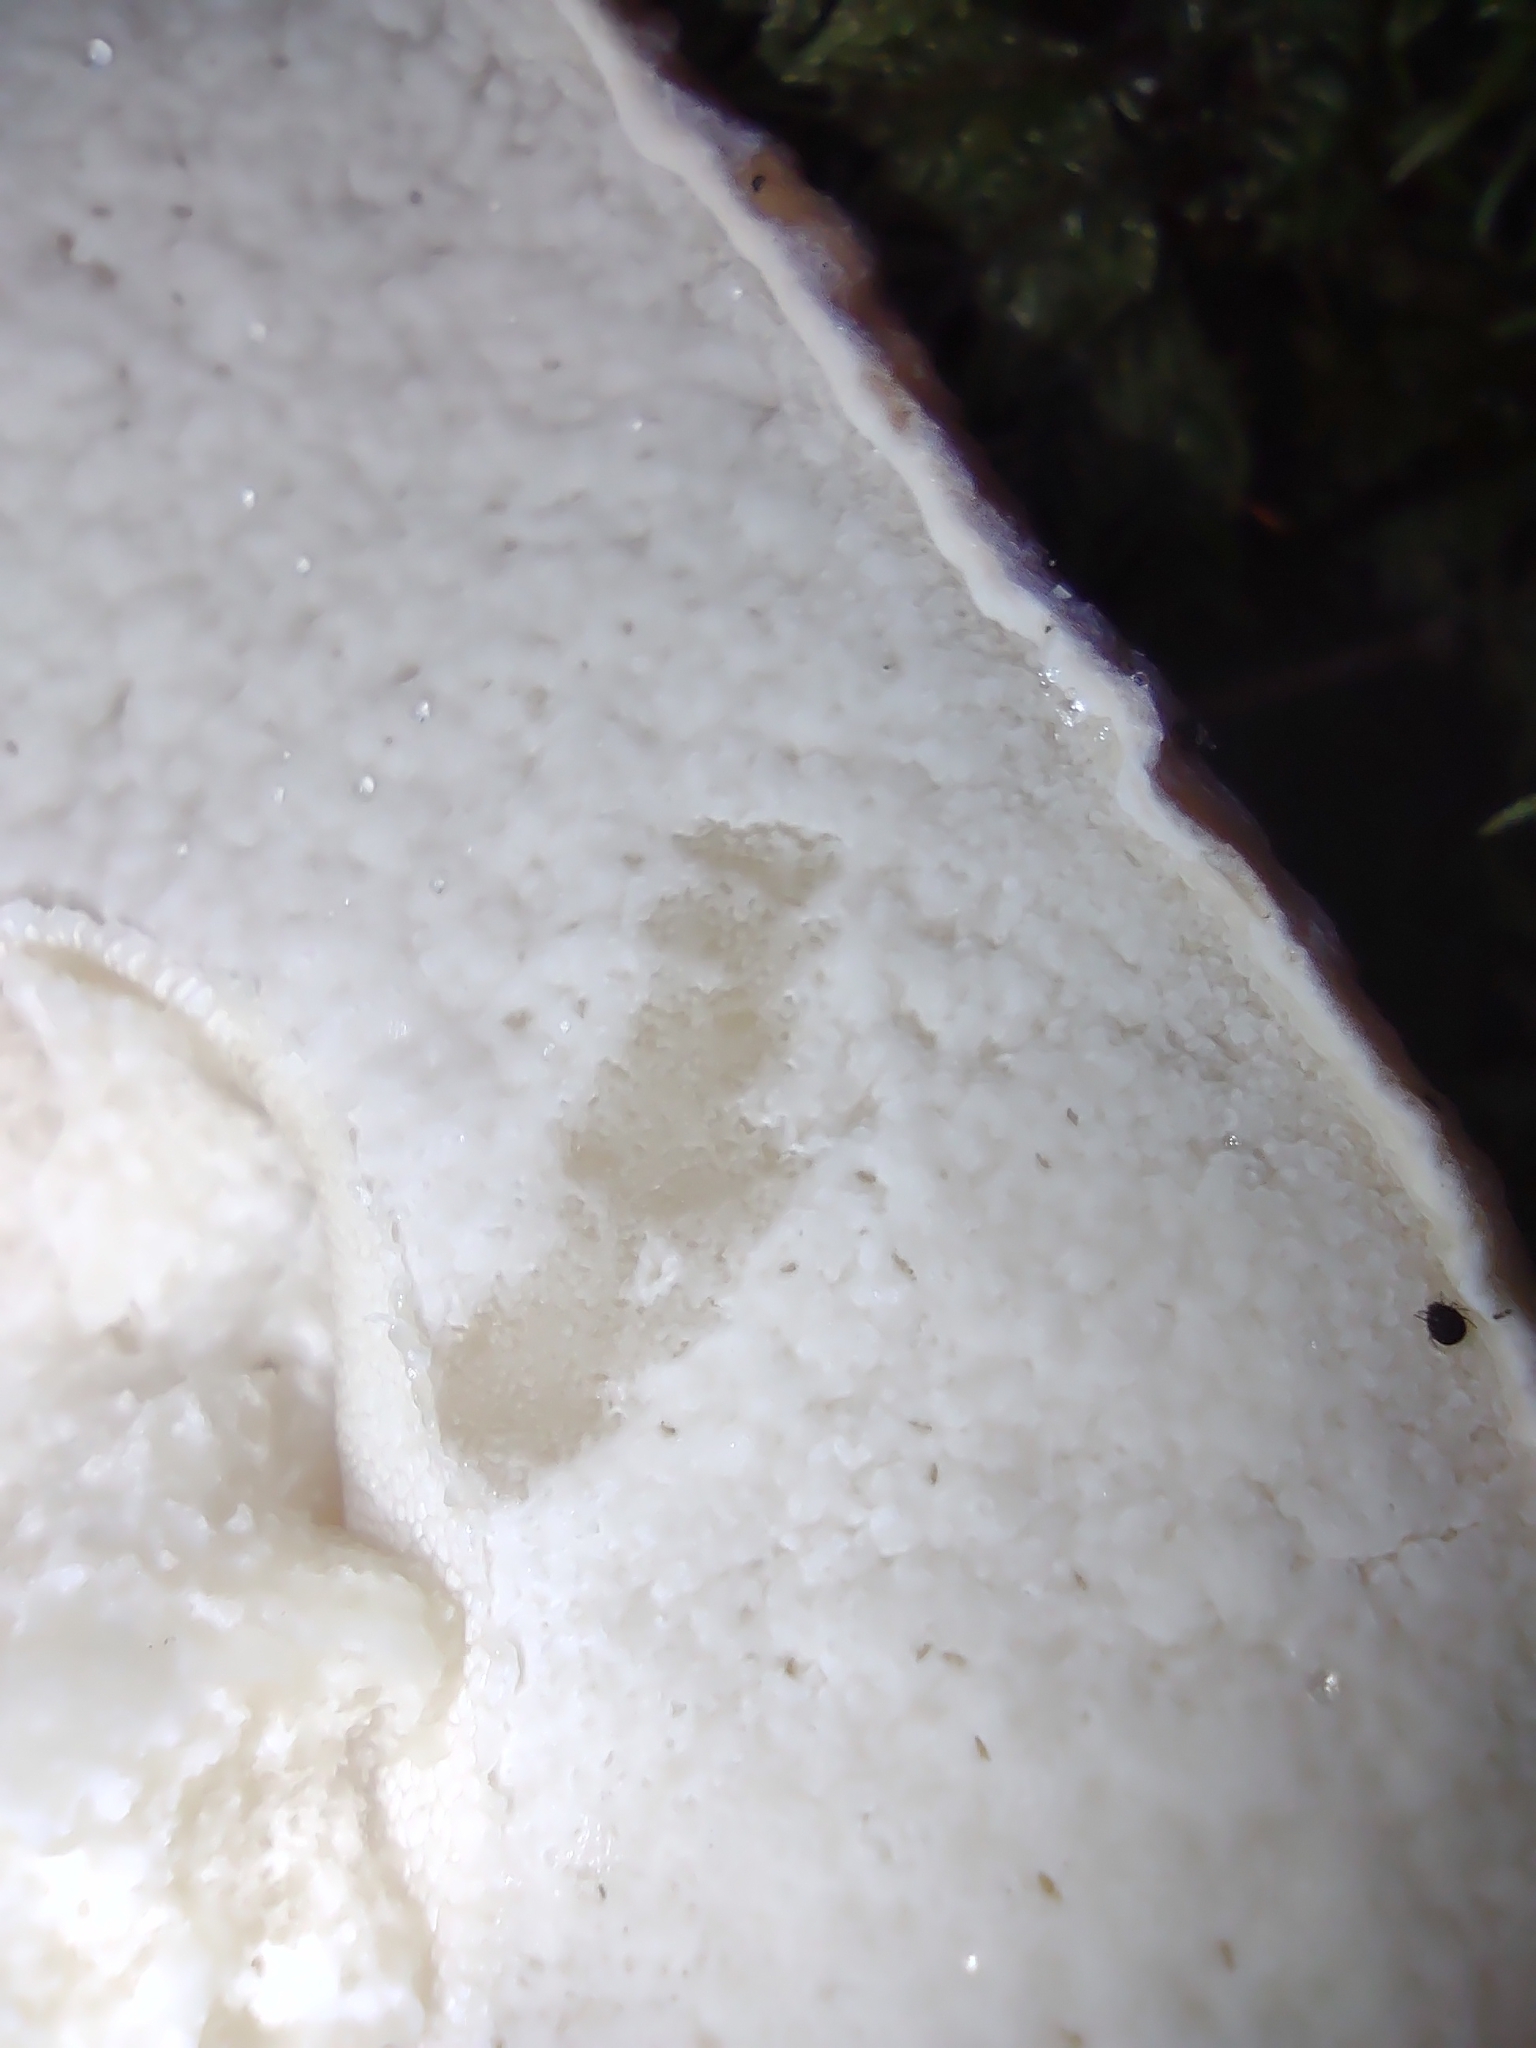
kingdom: Fungi
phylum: Basidiomycota
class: Agaricomycetes
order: Boletales
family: Boletaceae
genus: Boletus
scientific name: Boletus edulis
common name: Cep
